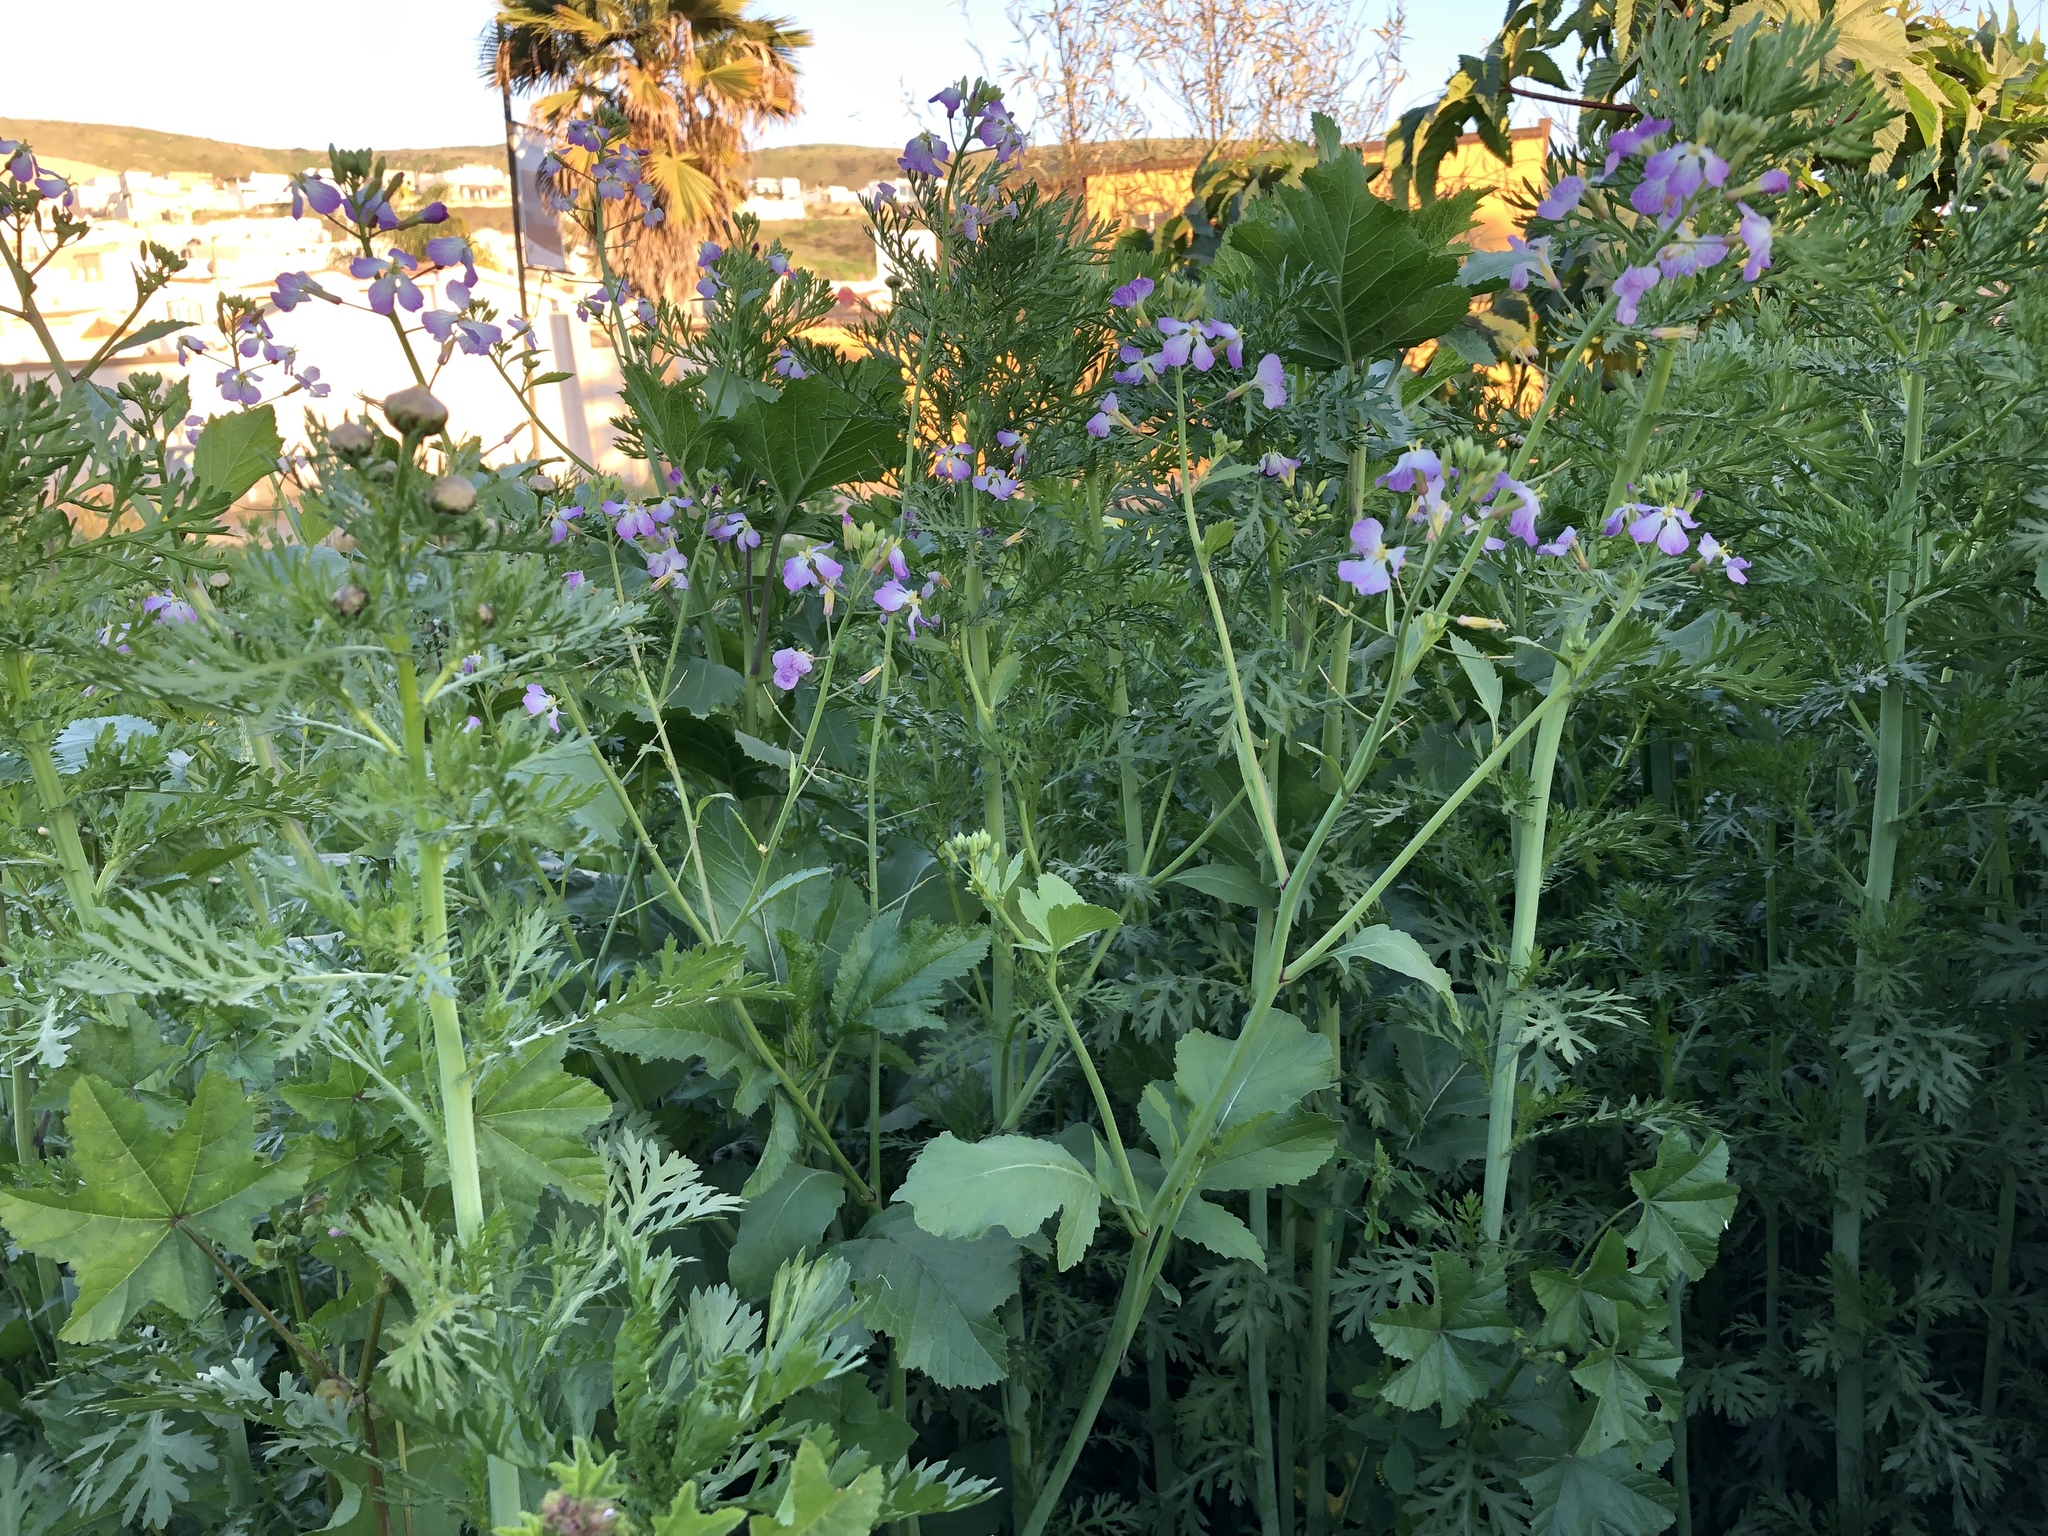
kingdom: Plantae
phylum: Tracheophyta
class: Magnoliopsida
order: Brassicales
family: Brassicaceae
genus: Raphanus
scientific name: Raphanus sativus
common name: Cultivated radish
